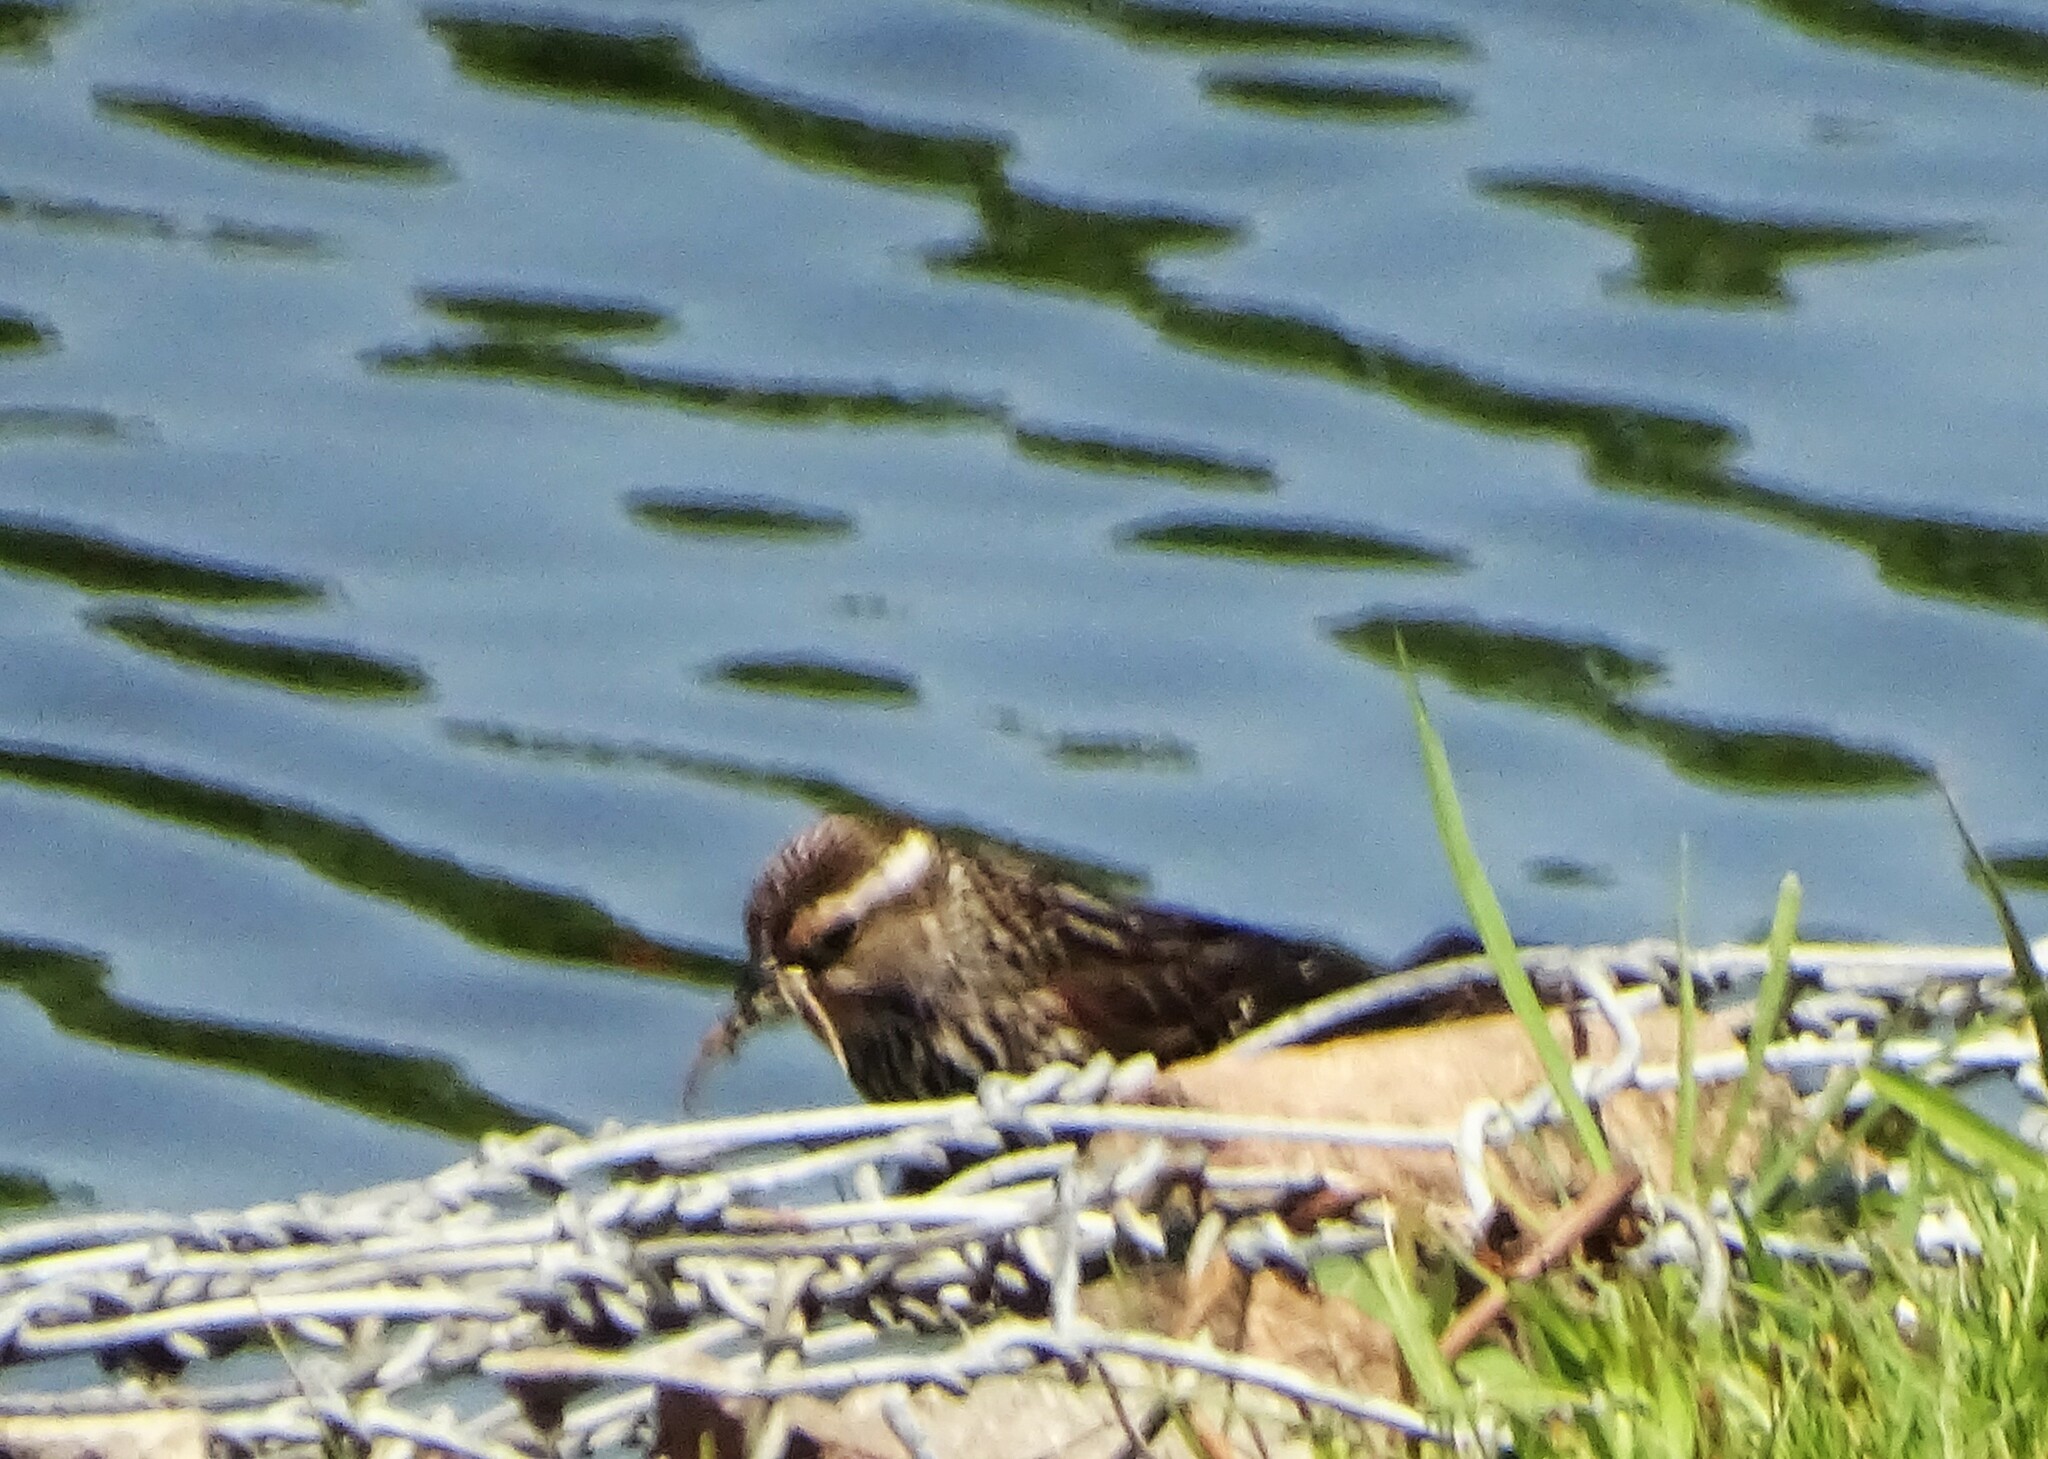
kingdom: Animalia
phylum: Chordata
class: Aves
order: Passeriformes
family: Icteridae
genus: Agelaius
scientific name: Agelaius phoeniceus
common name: Red-winged blackbird
